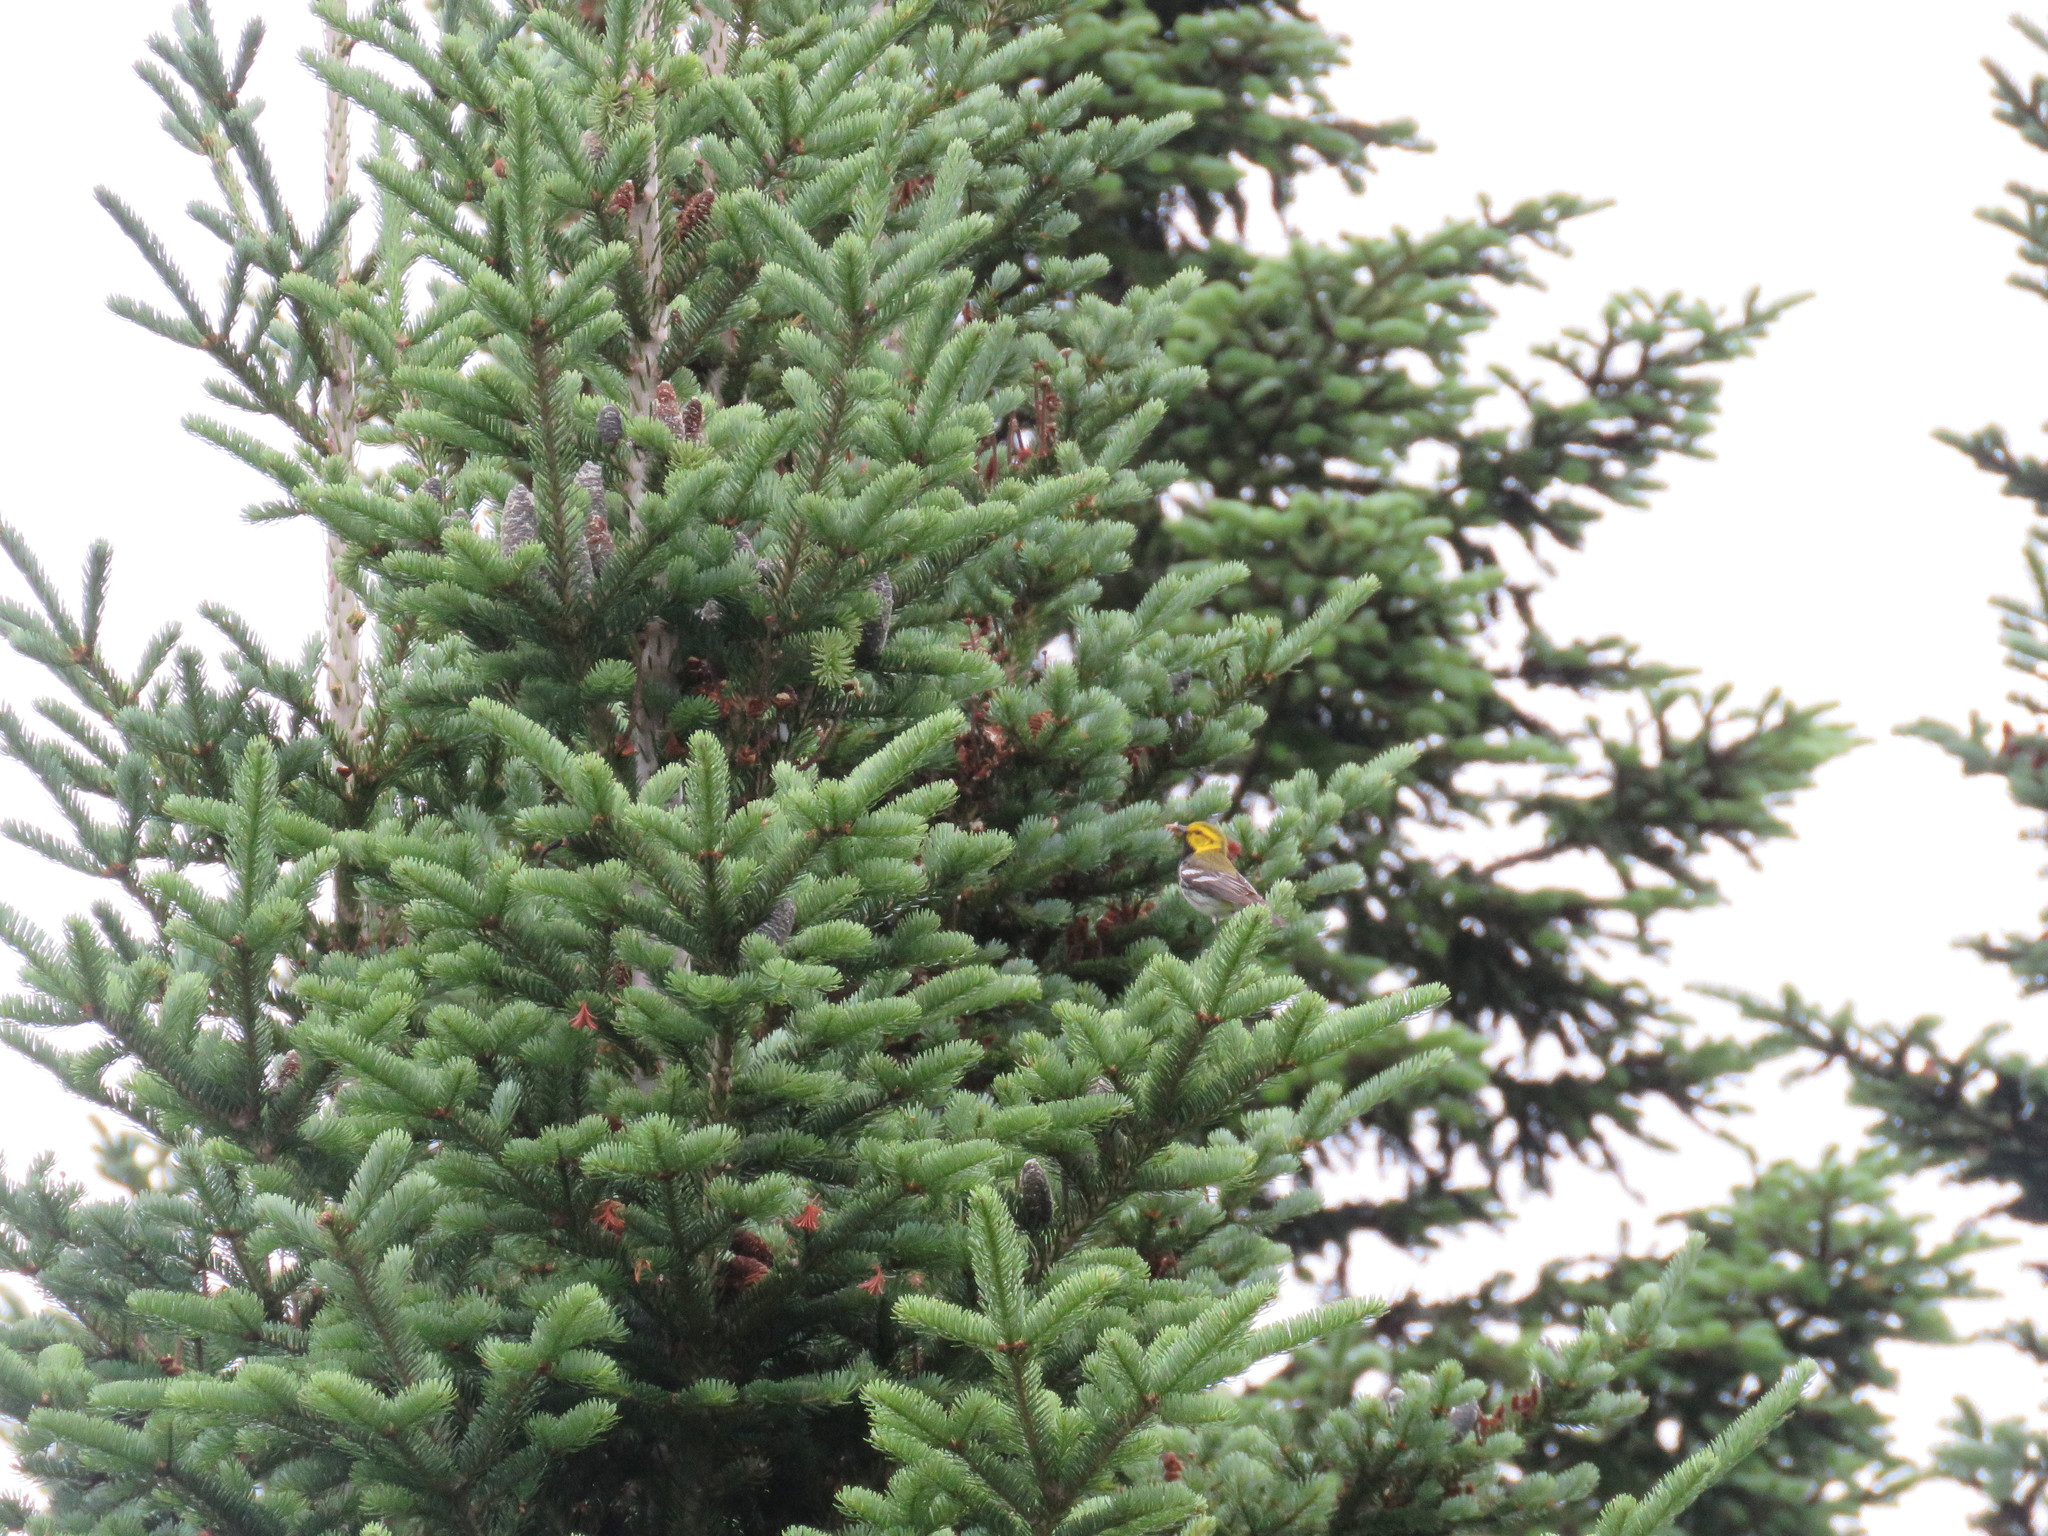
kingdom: Animalia
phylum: Chordata
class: Aves
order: Passeriformes
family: Parulidae
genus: Setophaga
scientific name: Setophaga virens
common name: Black-throated green warbler
